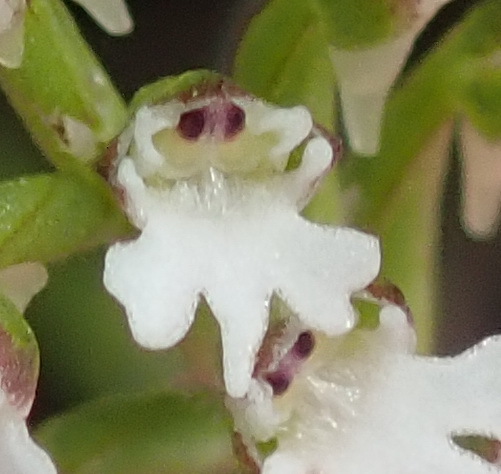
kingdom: Plantae
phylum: Tracheophyta
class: Liliopsida
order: Asparagales
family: Orchidaceae
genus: Holothrix
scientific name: Holothrix mundii
